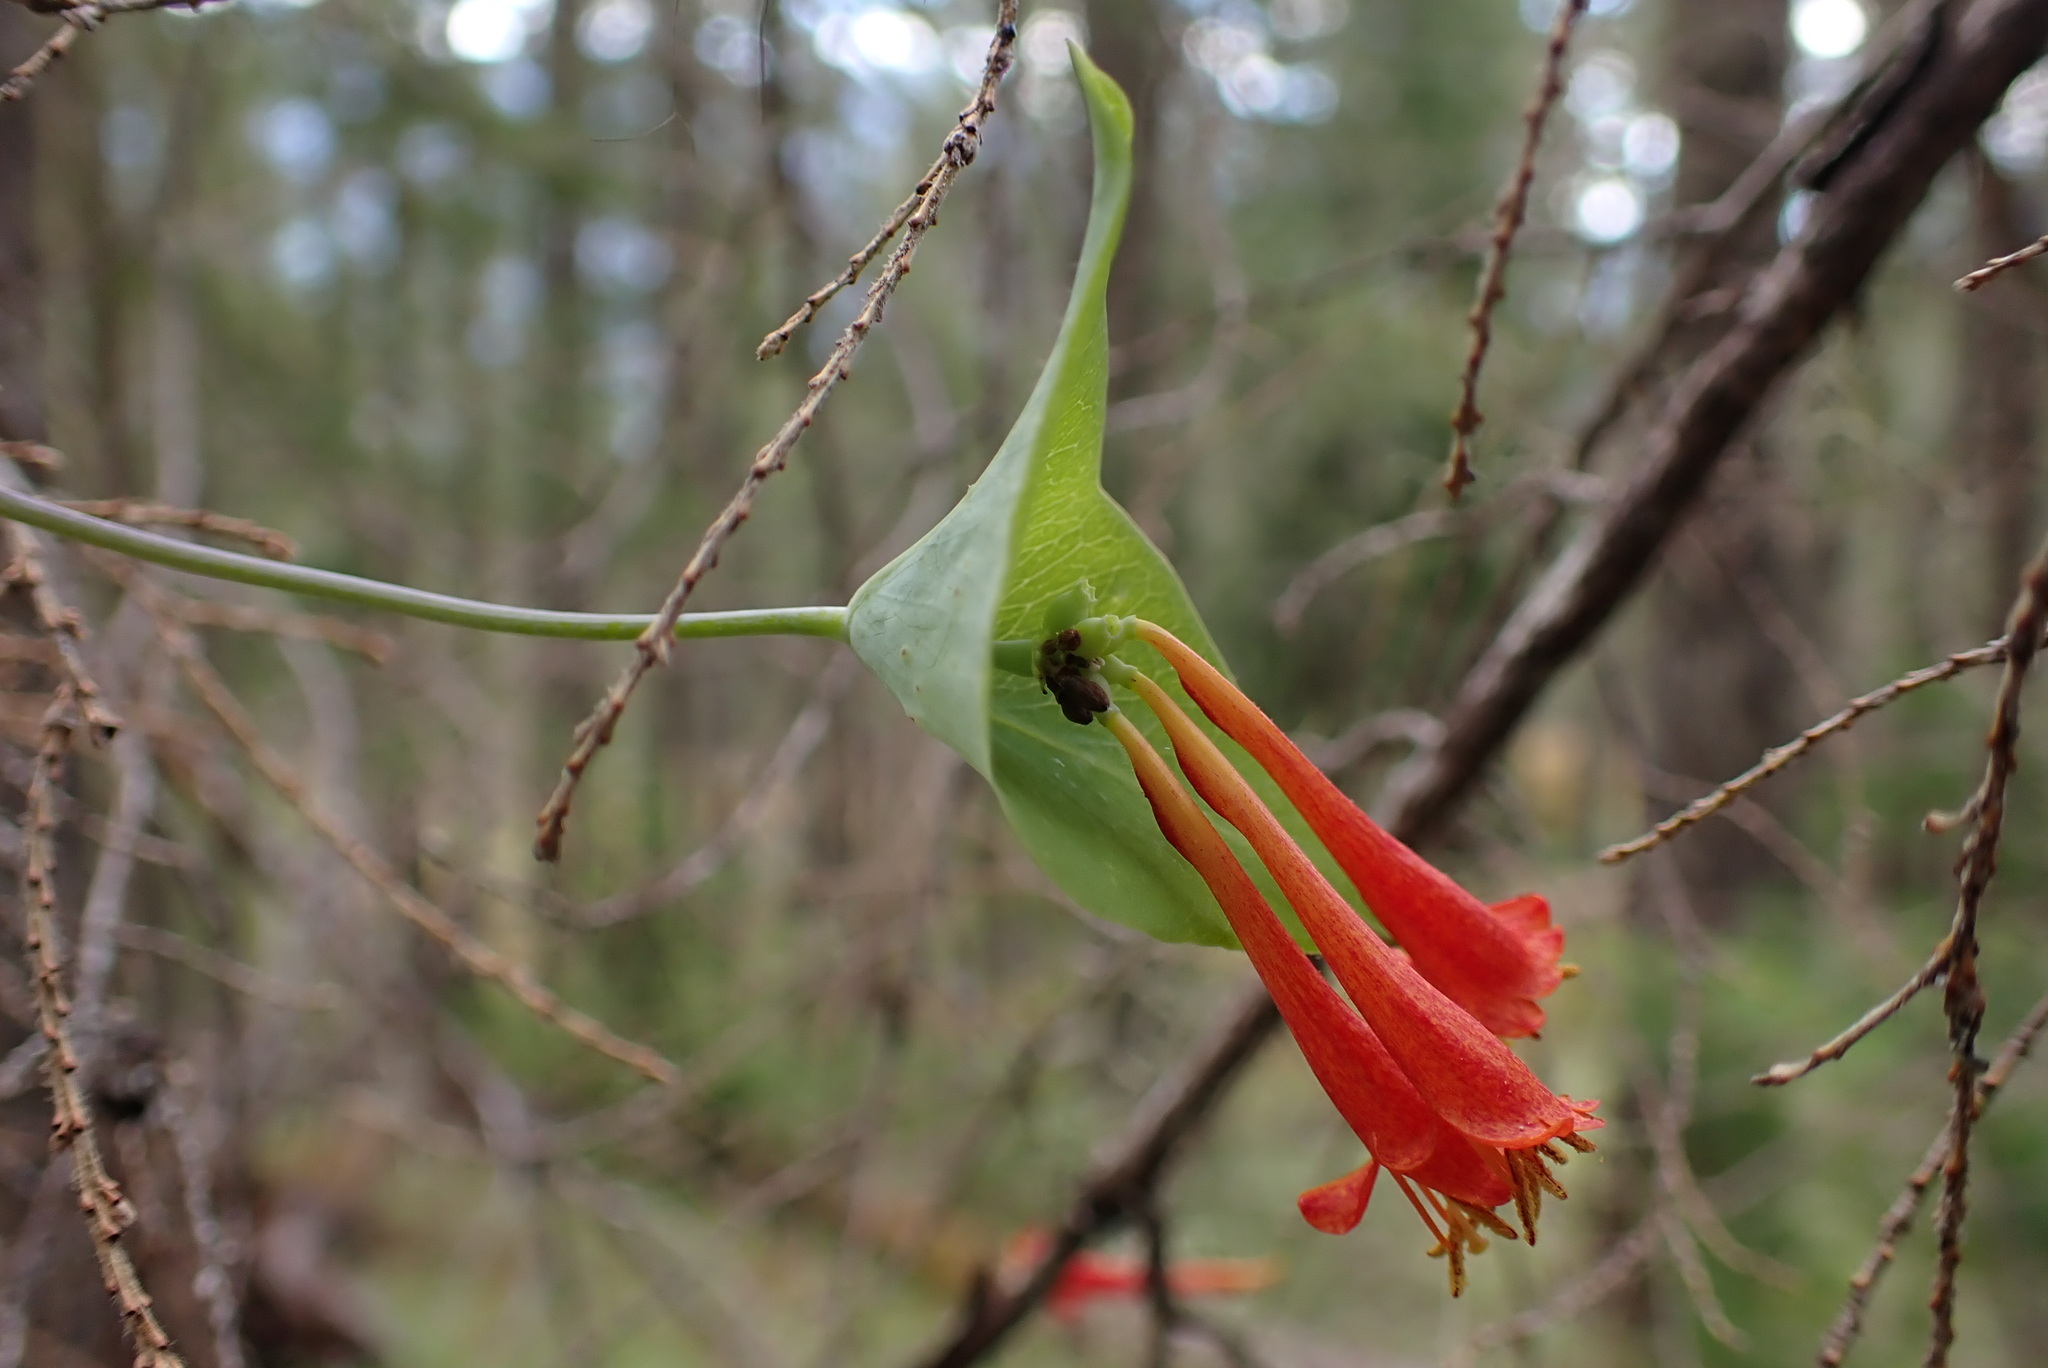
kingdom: Plantae
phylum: Tracheophyta
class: Magnoliopsida
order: Dipsacales
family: Caprifoliaceae
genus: Lonicera
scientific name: Lonicera ciliosa
